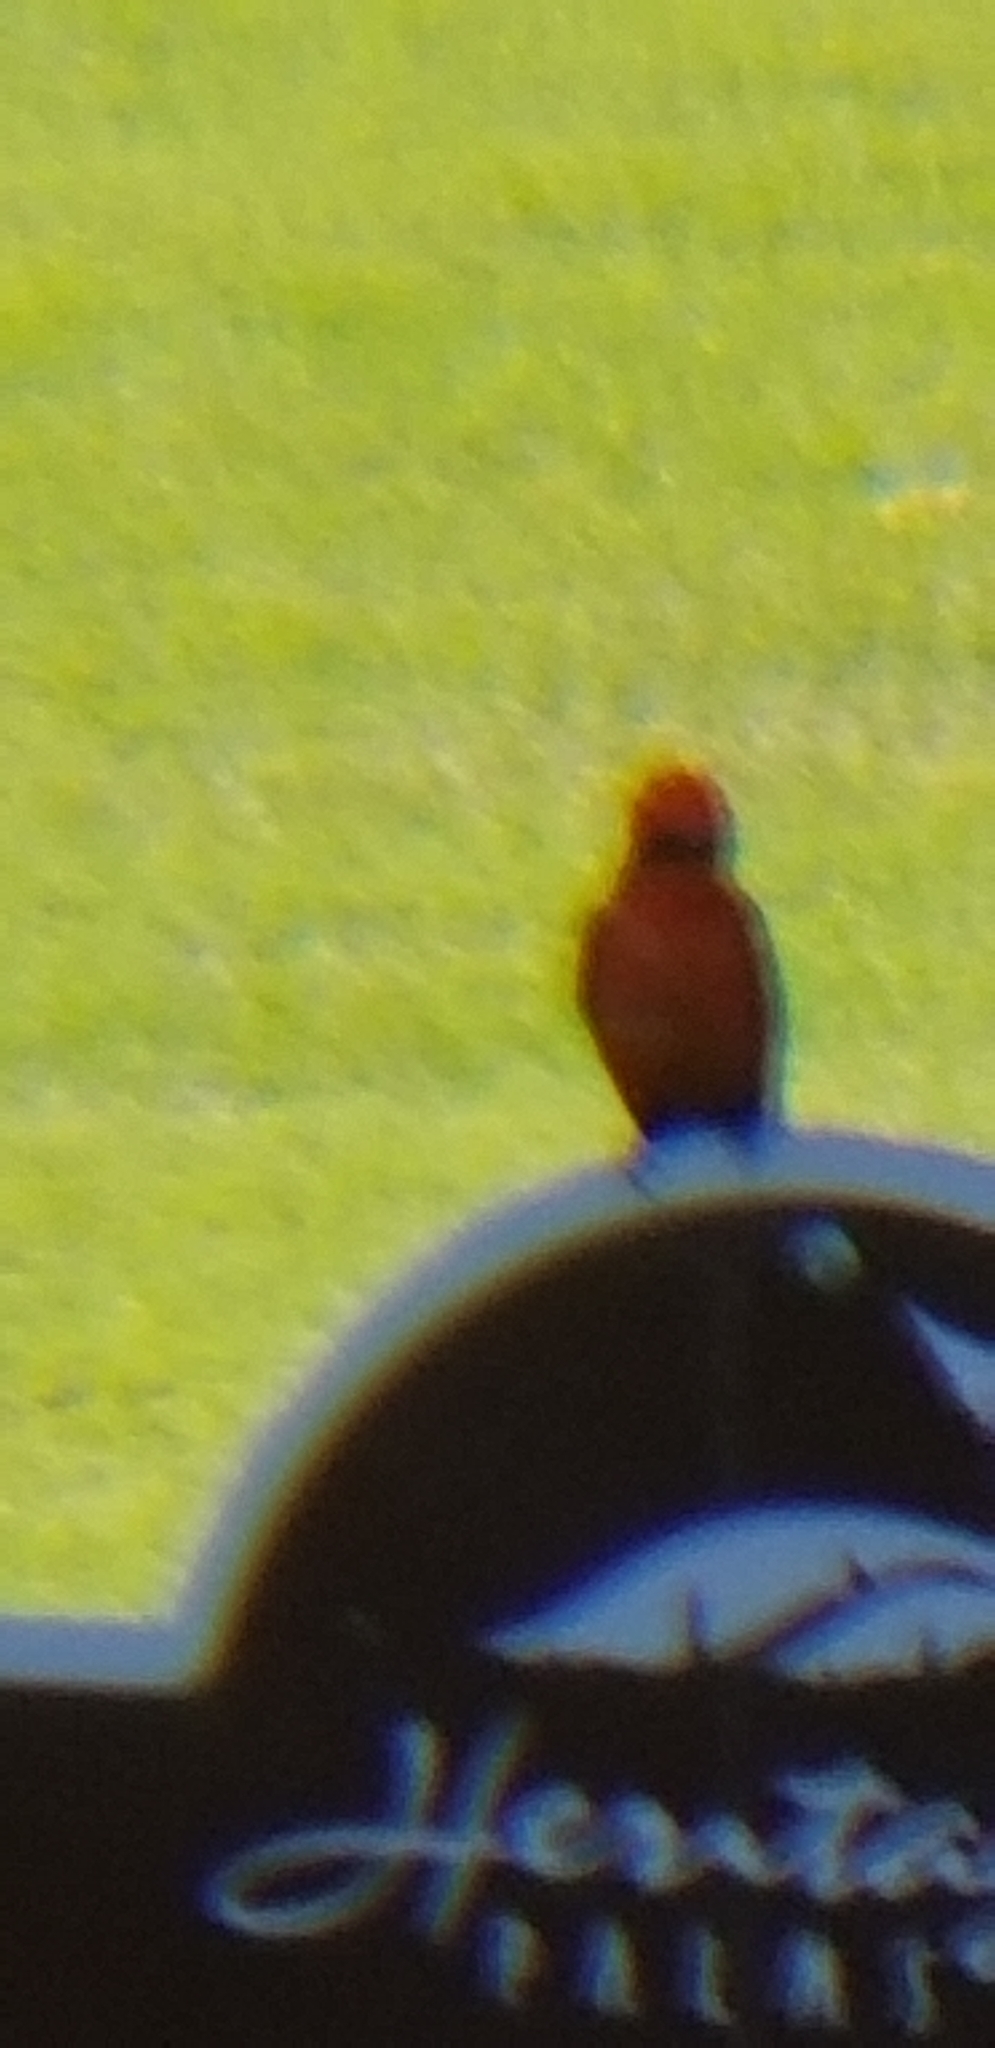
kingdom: Animalia
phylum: Chordata
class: Aves
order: Passeriformes
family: Tyrannidae
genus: Pyrocephalus
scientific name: Pyrocephalus rubinus
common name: Vermilion flycatcher
